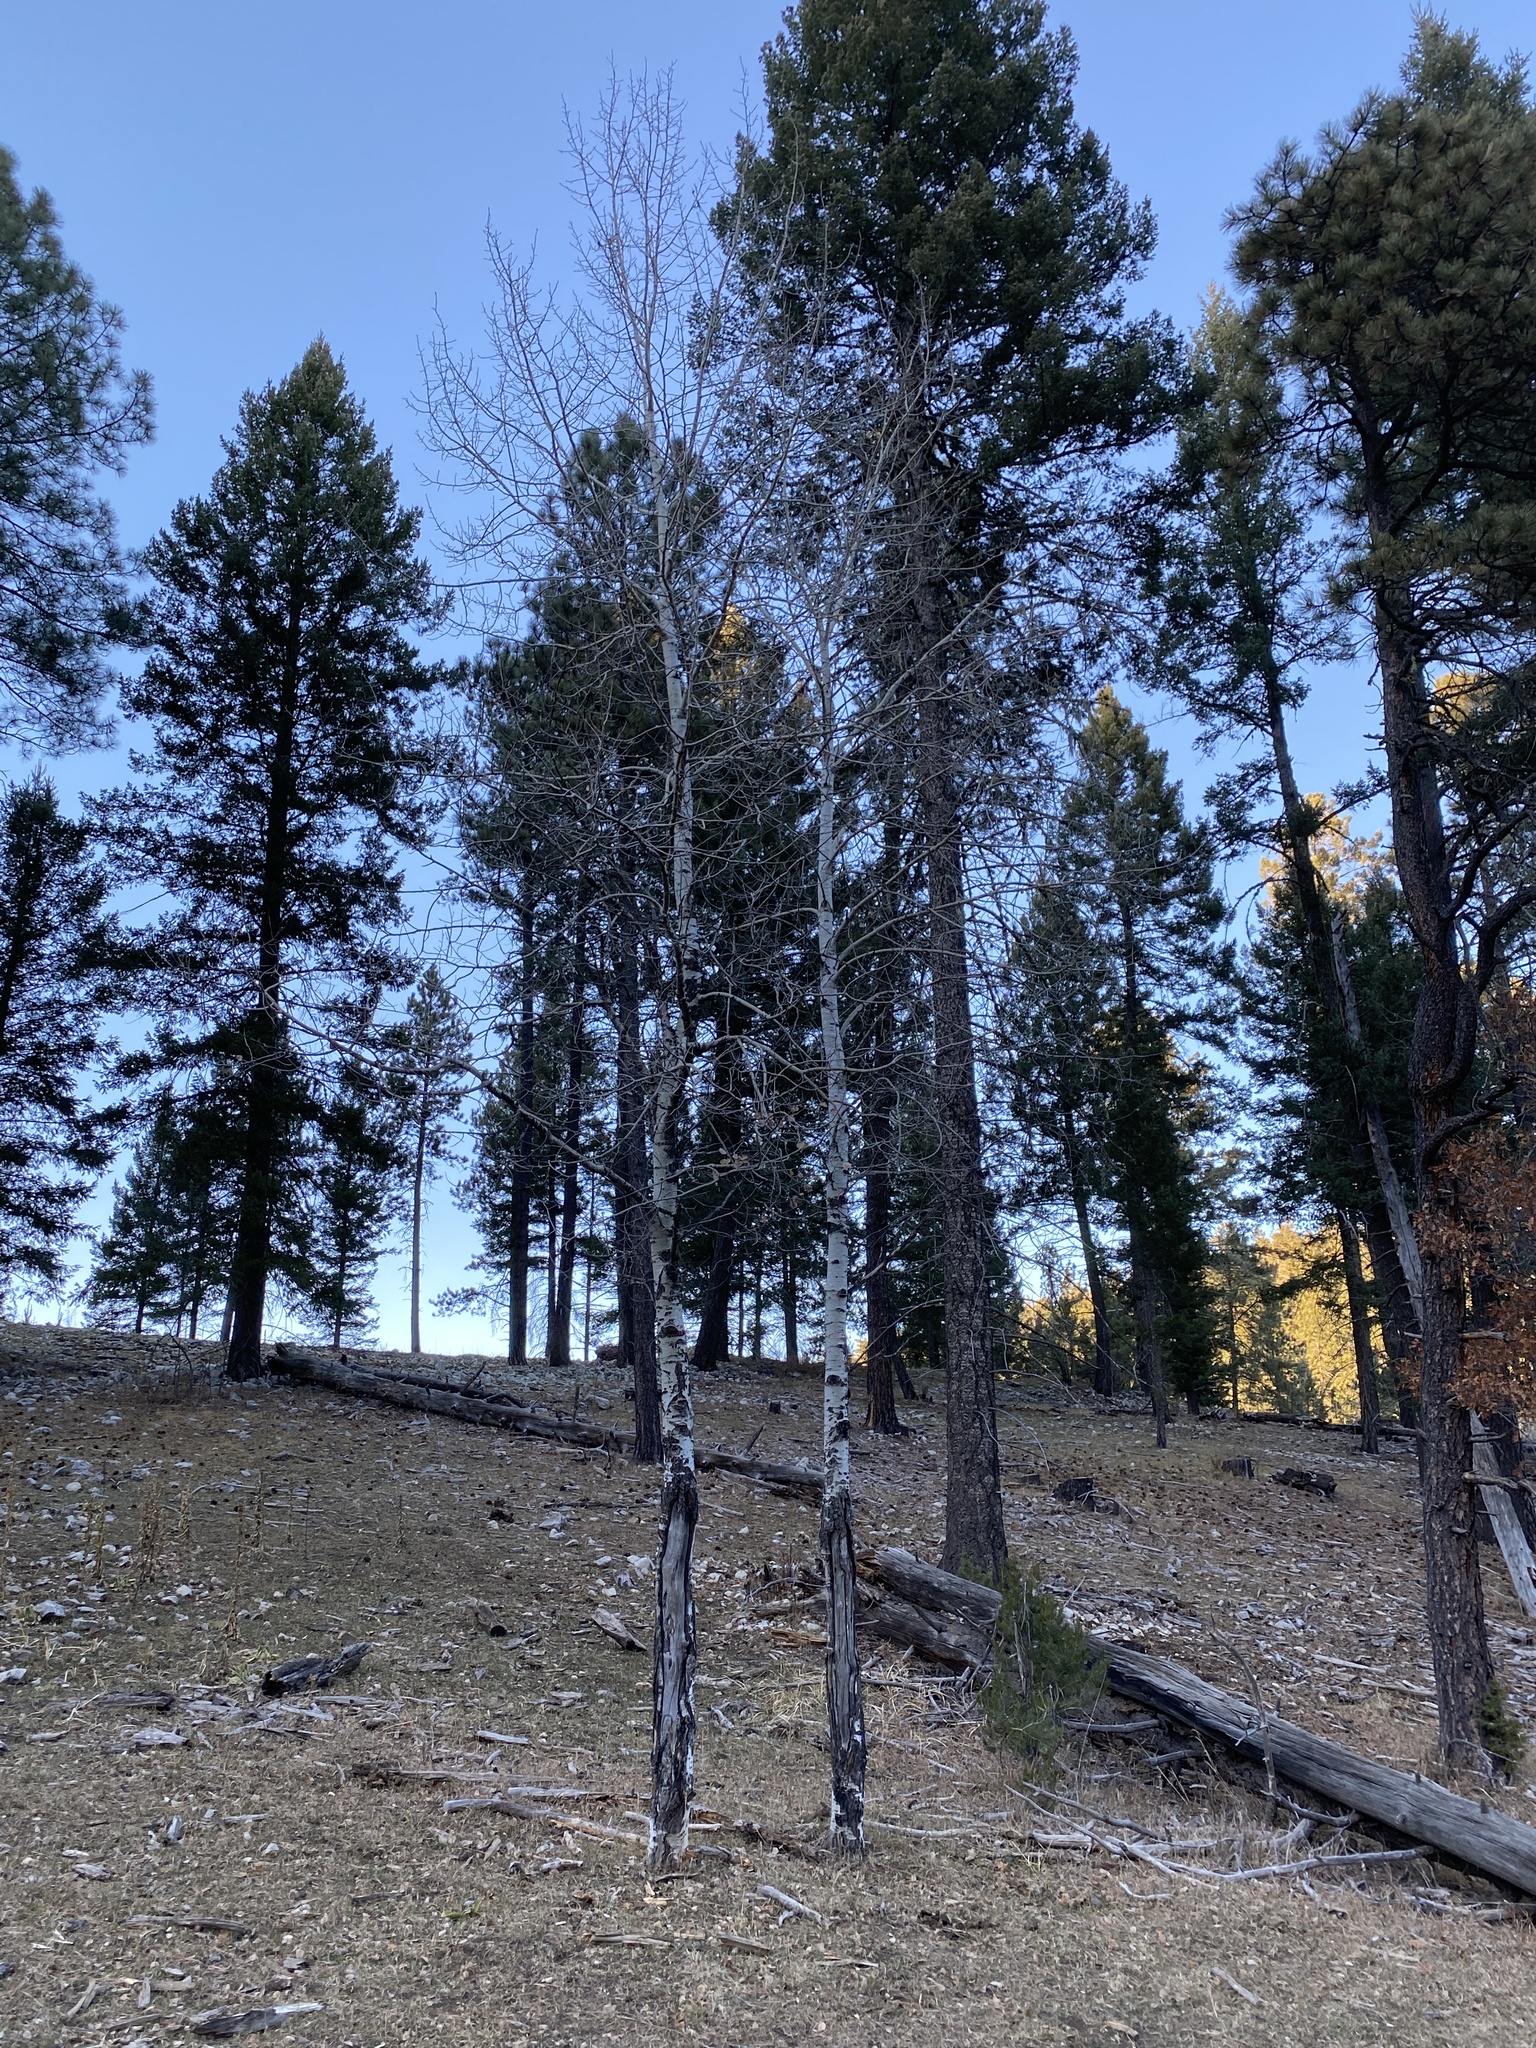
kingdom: Plantae
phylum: Tracheophyta
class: Magnoliopsida
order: Malpighiales
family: Salicaceae
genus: Populus
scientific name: Populus tremuloides
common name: Quaking aspen
